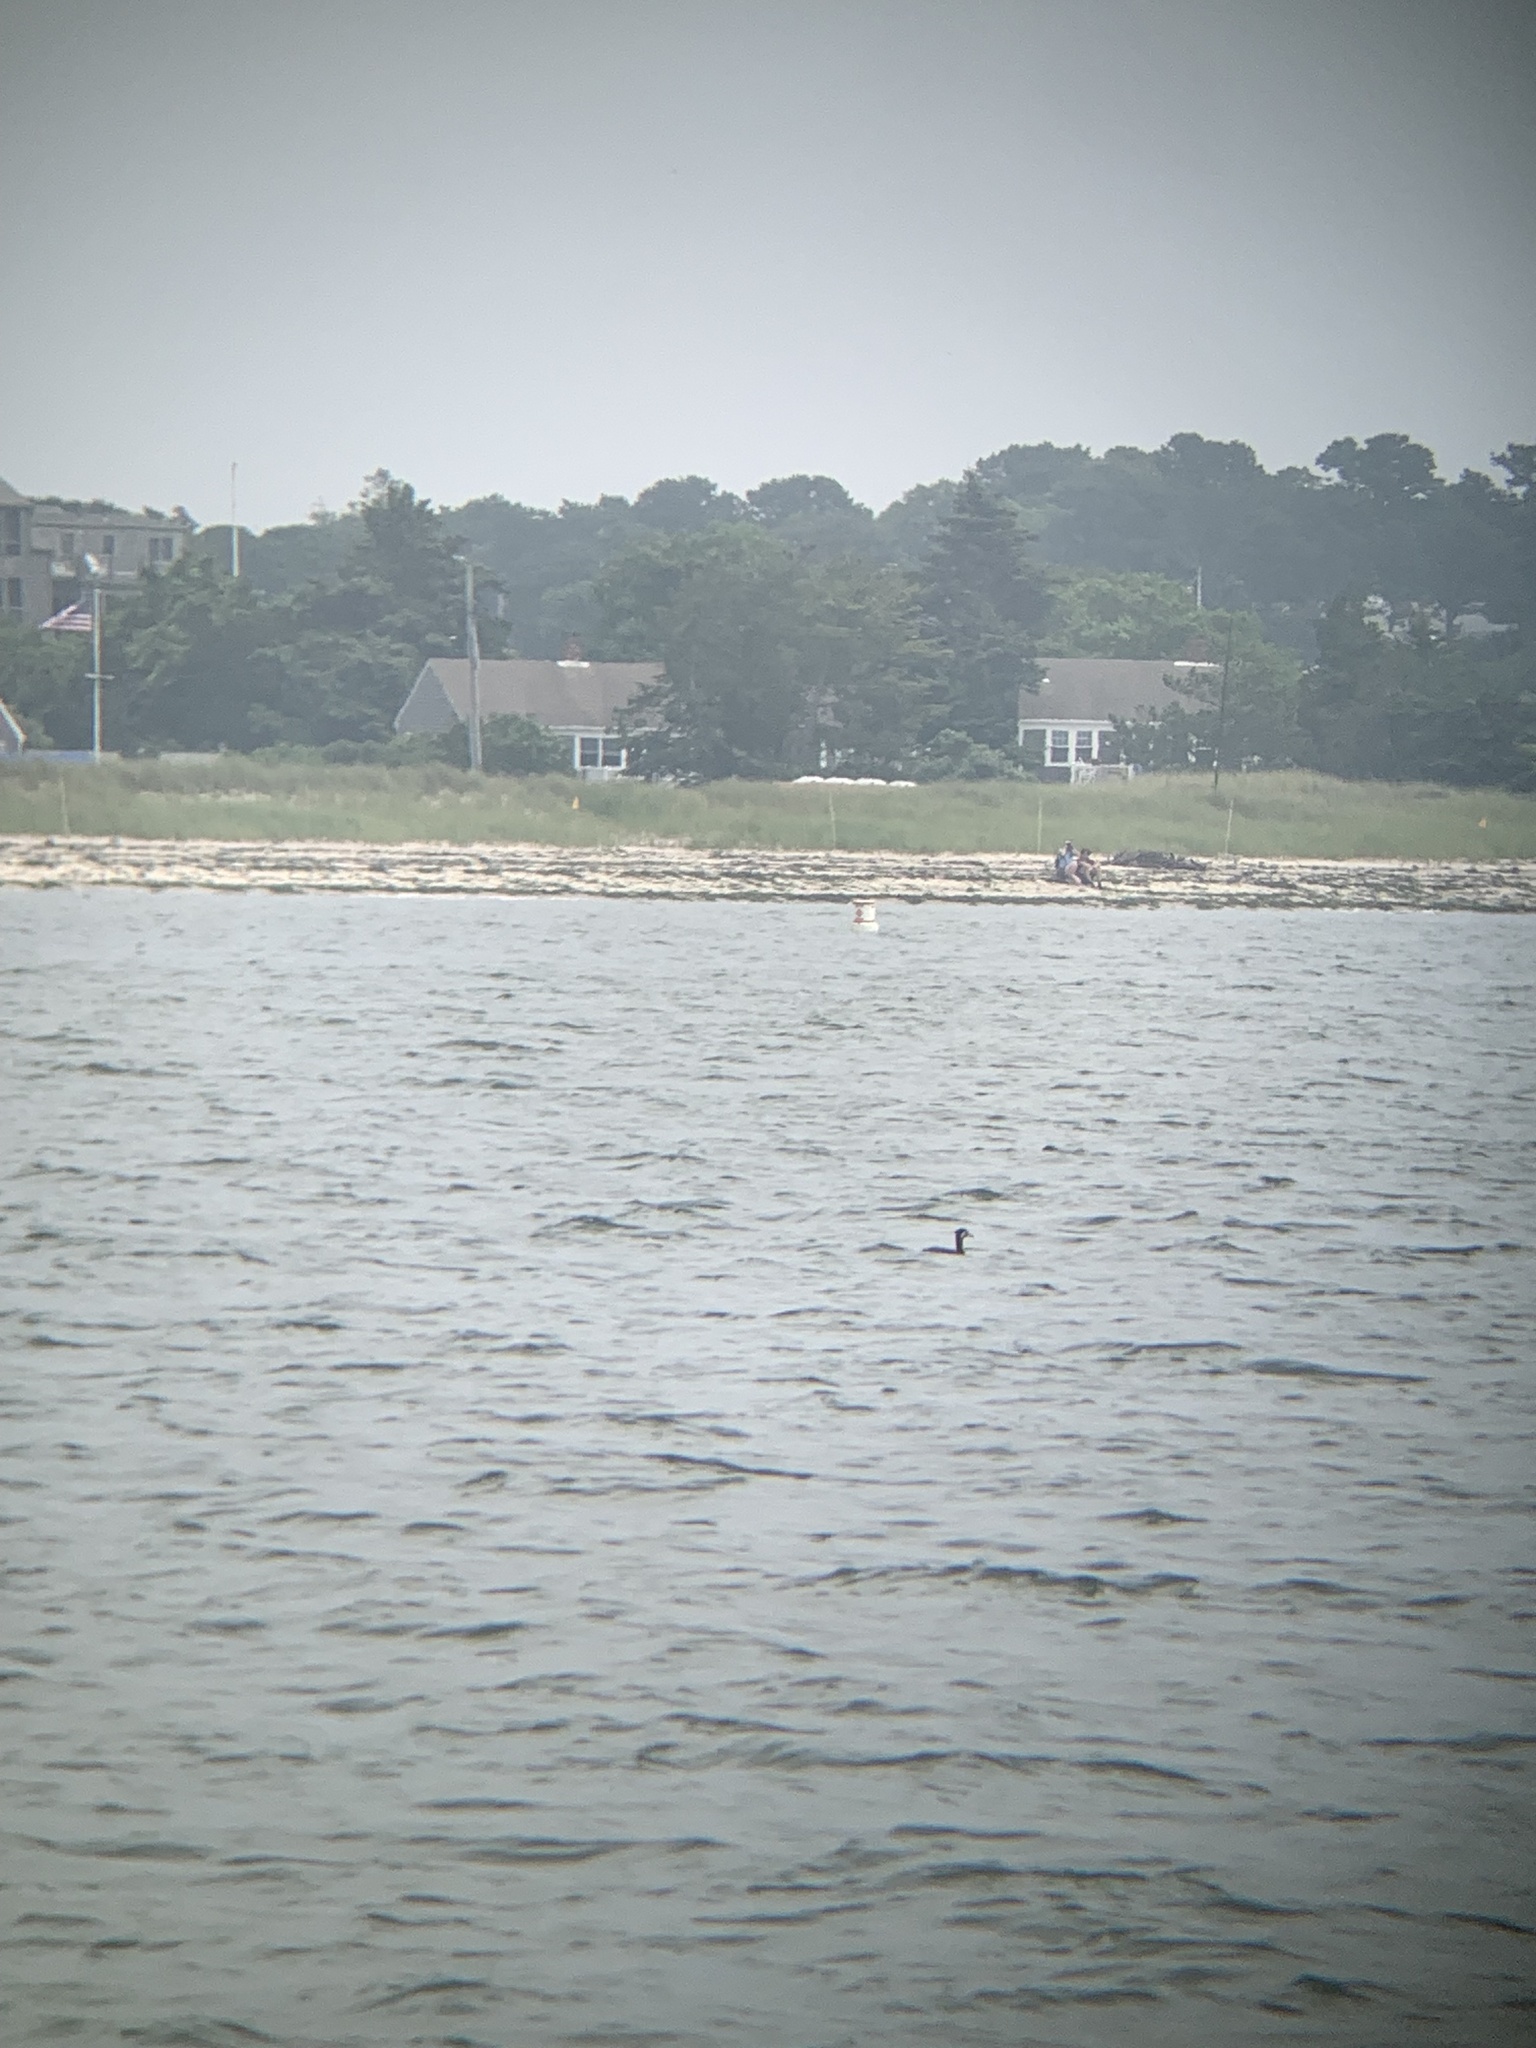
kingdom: Animalia
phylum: Chordata
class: Aves
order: Podicipediformes
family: Podicipedidae
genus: Podiceps
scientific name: Podiceps grisegena
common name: Red-necked grebe
